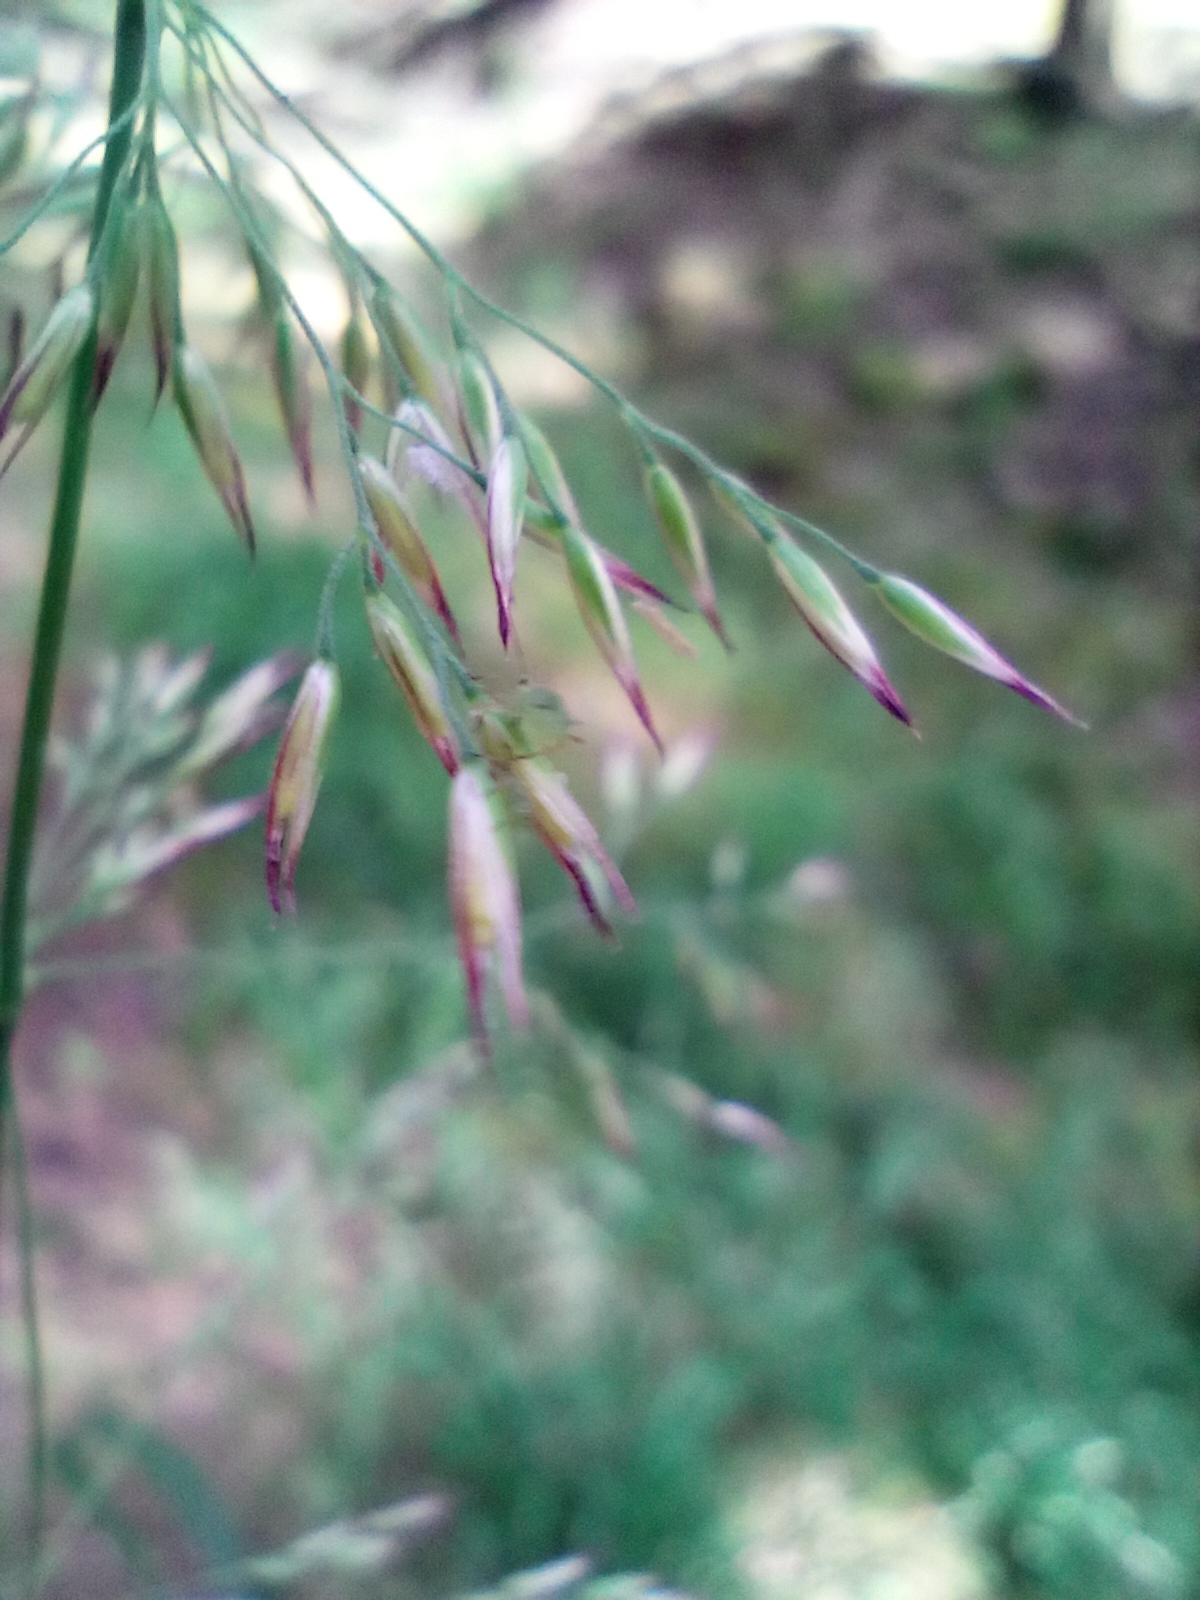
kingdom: Plantae
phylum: Tracheophyta
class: Liliopsida
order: Poales
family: Poaceae
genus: Calamagrostis
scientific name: Calamagrostis villosa
